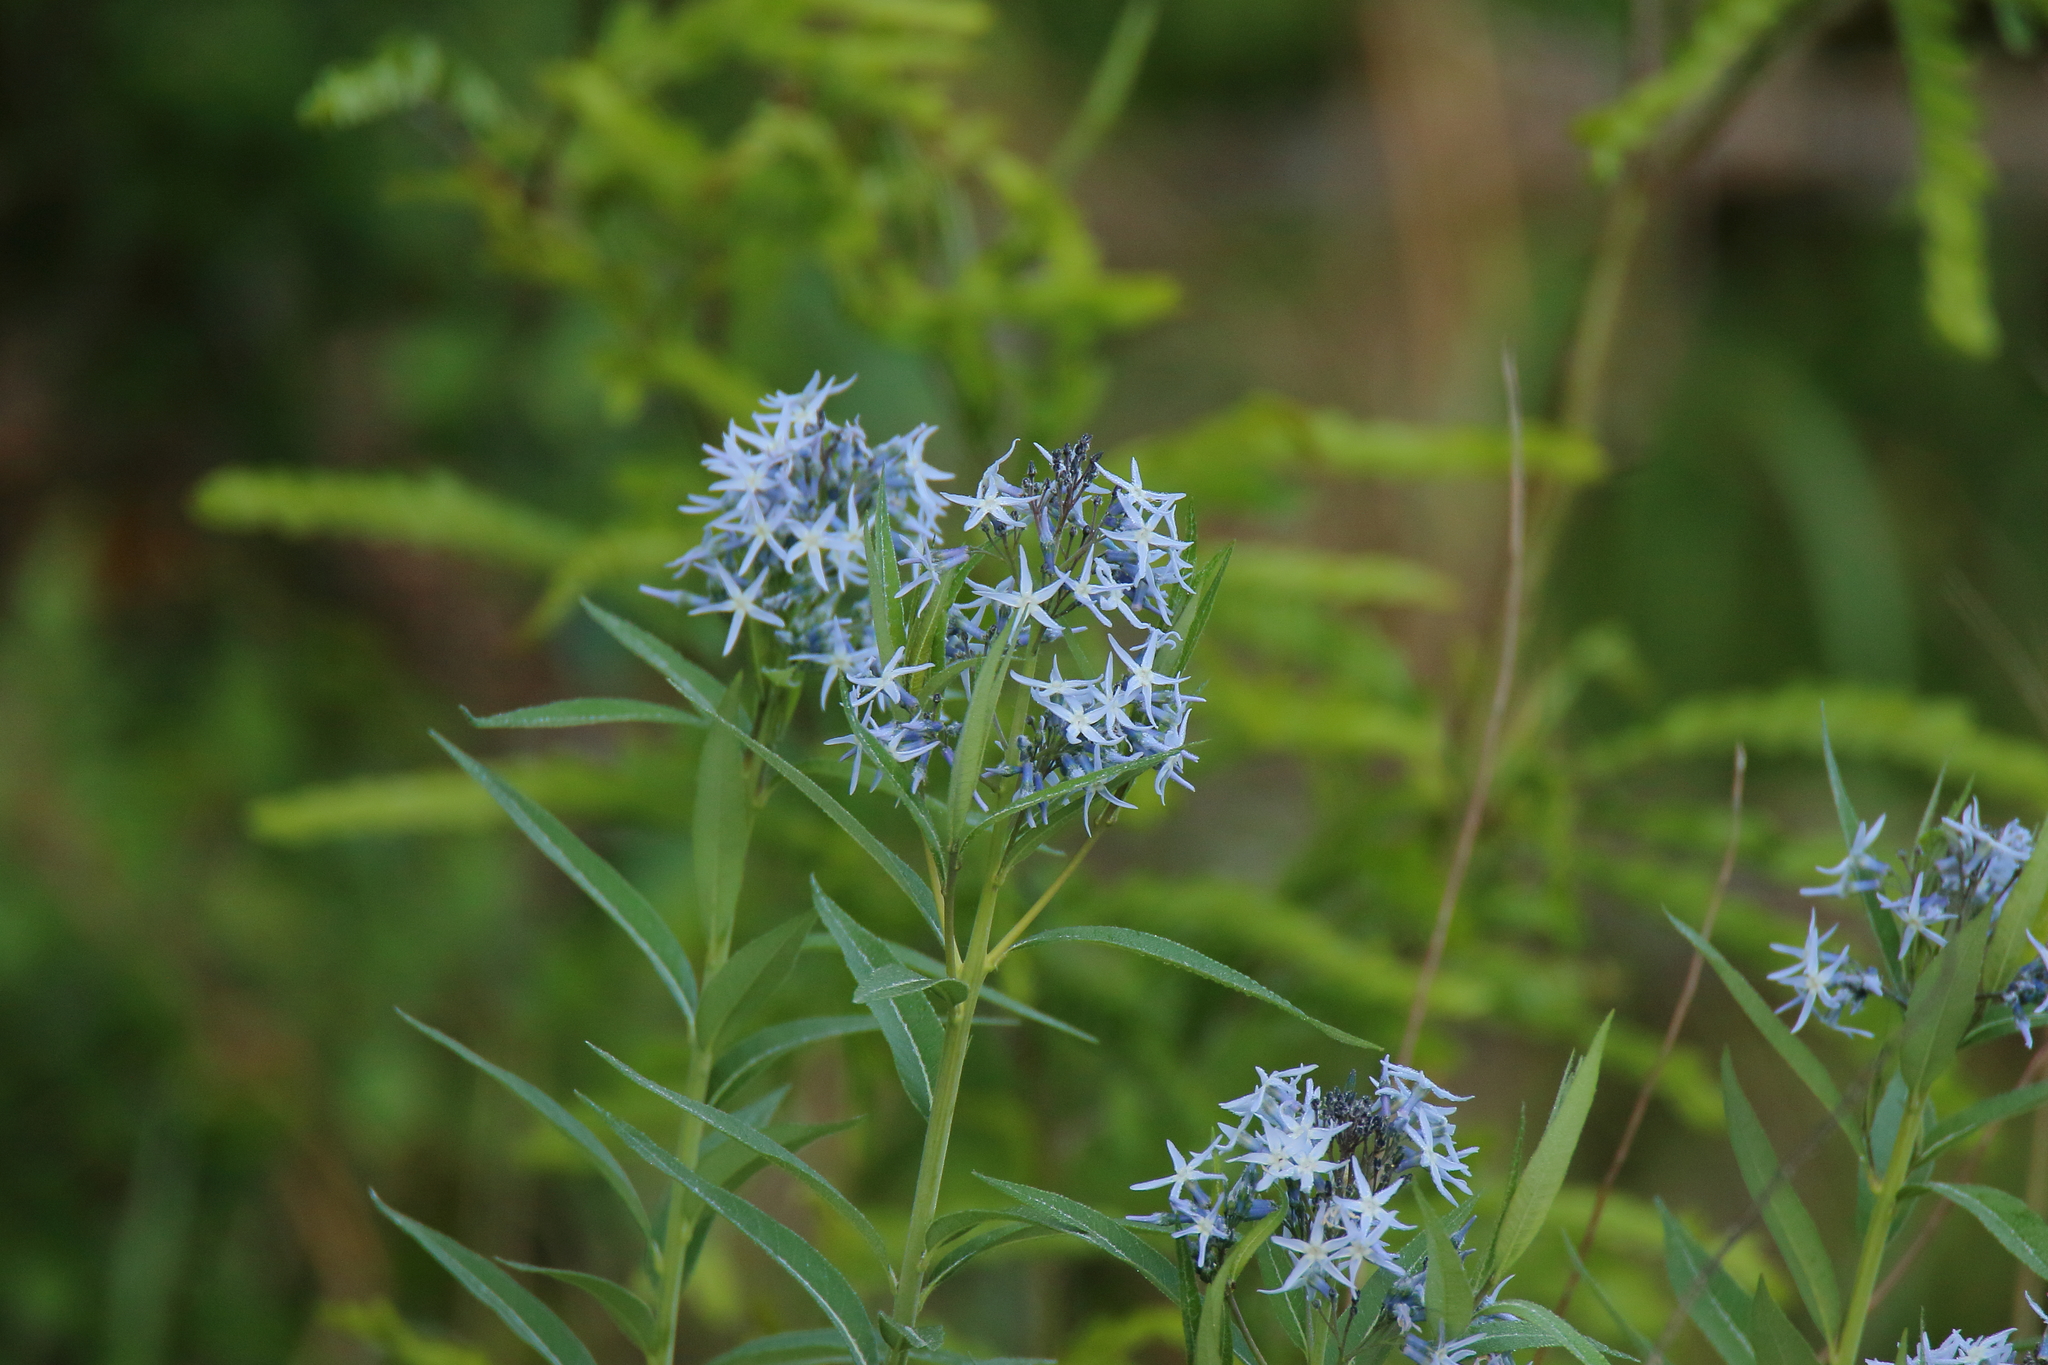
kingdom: Plantae
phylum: Tracheophyta
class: Magnoliopsida
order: Gentianales
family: Apocynaceae
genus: Amsonia
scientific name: Amsonia tabernaemontana
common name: Texas-star
